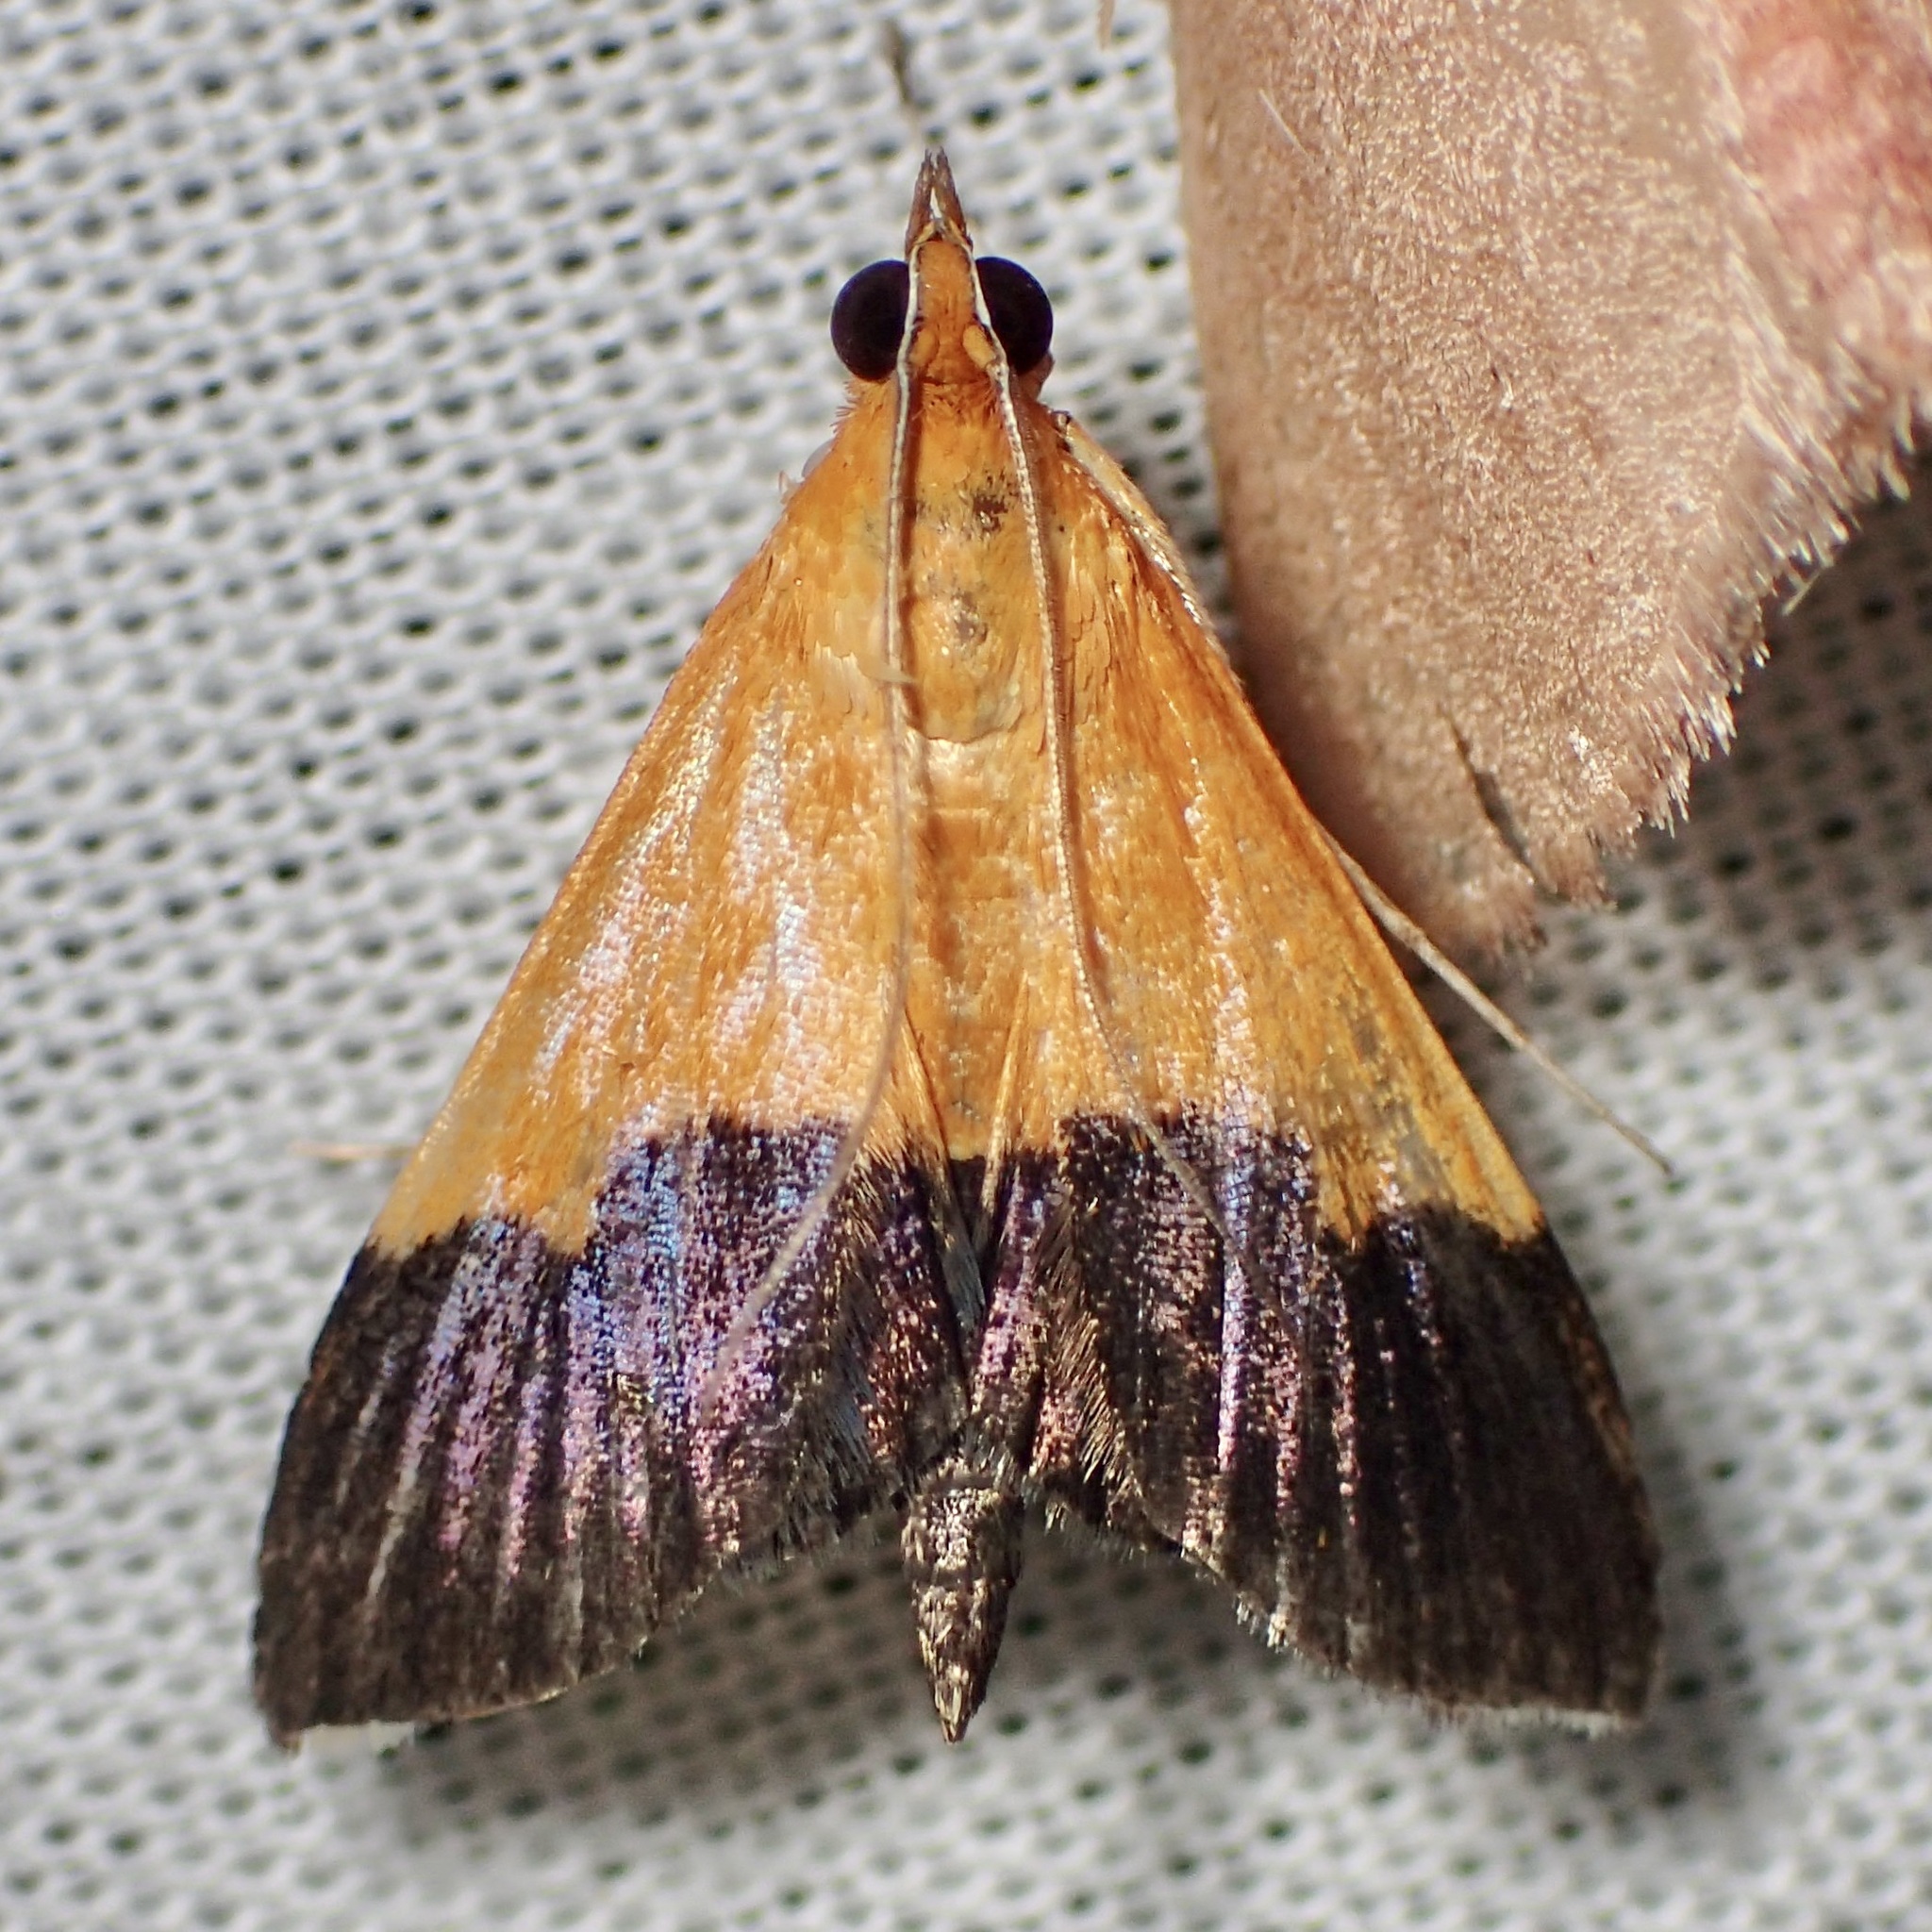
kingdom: Animalia
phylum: Arthropoda
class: Insecta
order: Lepidoptera
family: Crambidae
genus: Pyrausta
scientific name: Pyrausta augustalis
